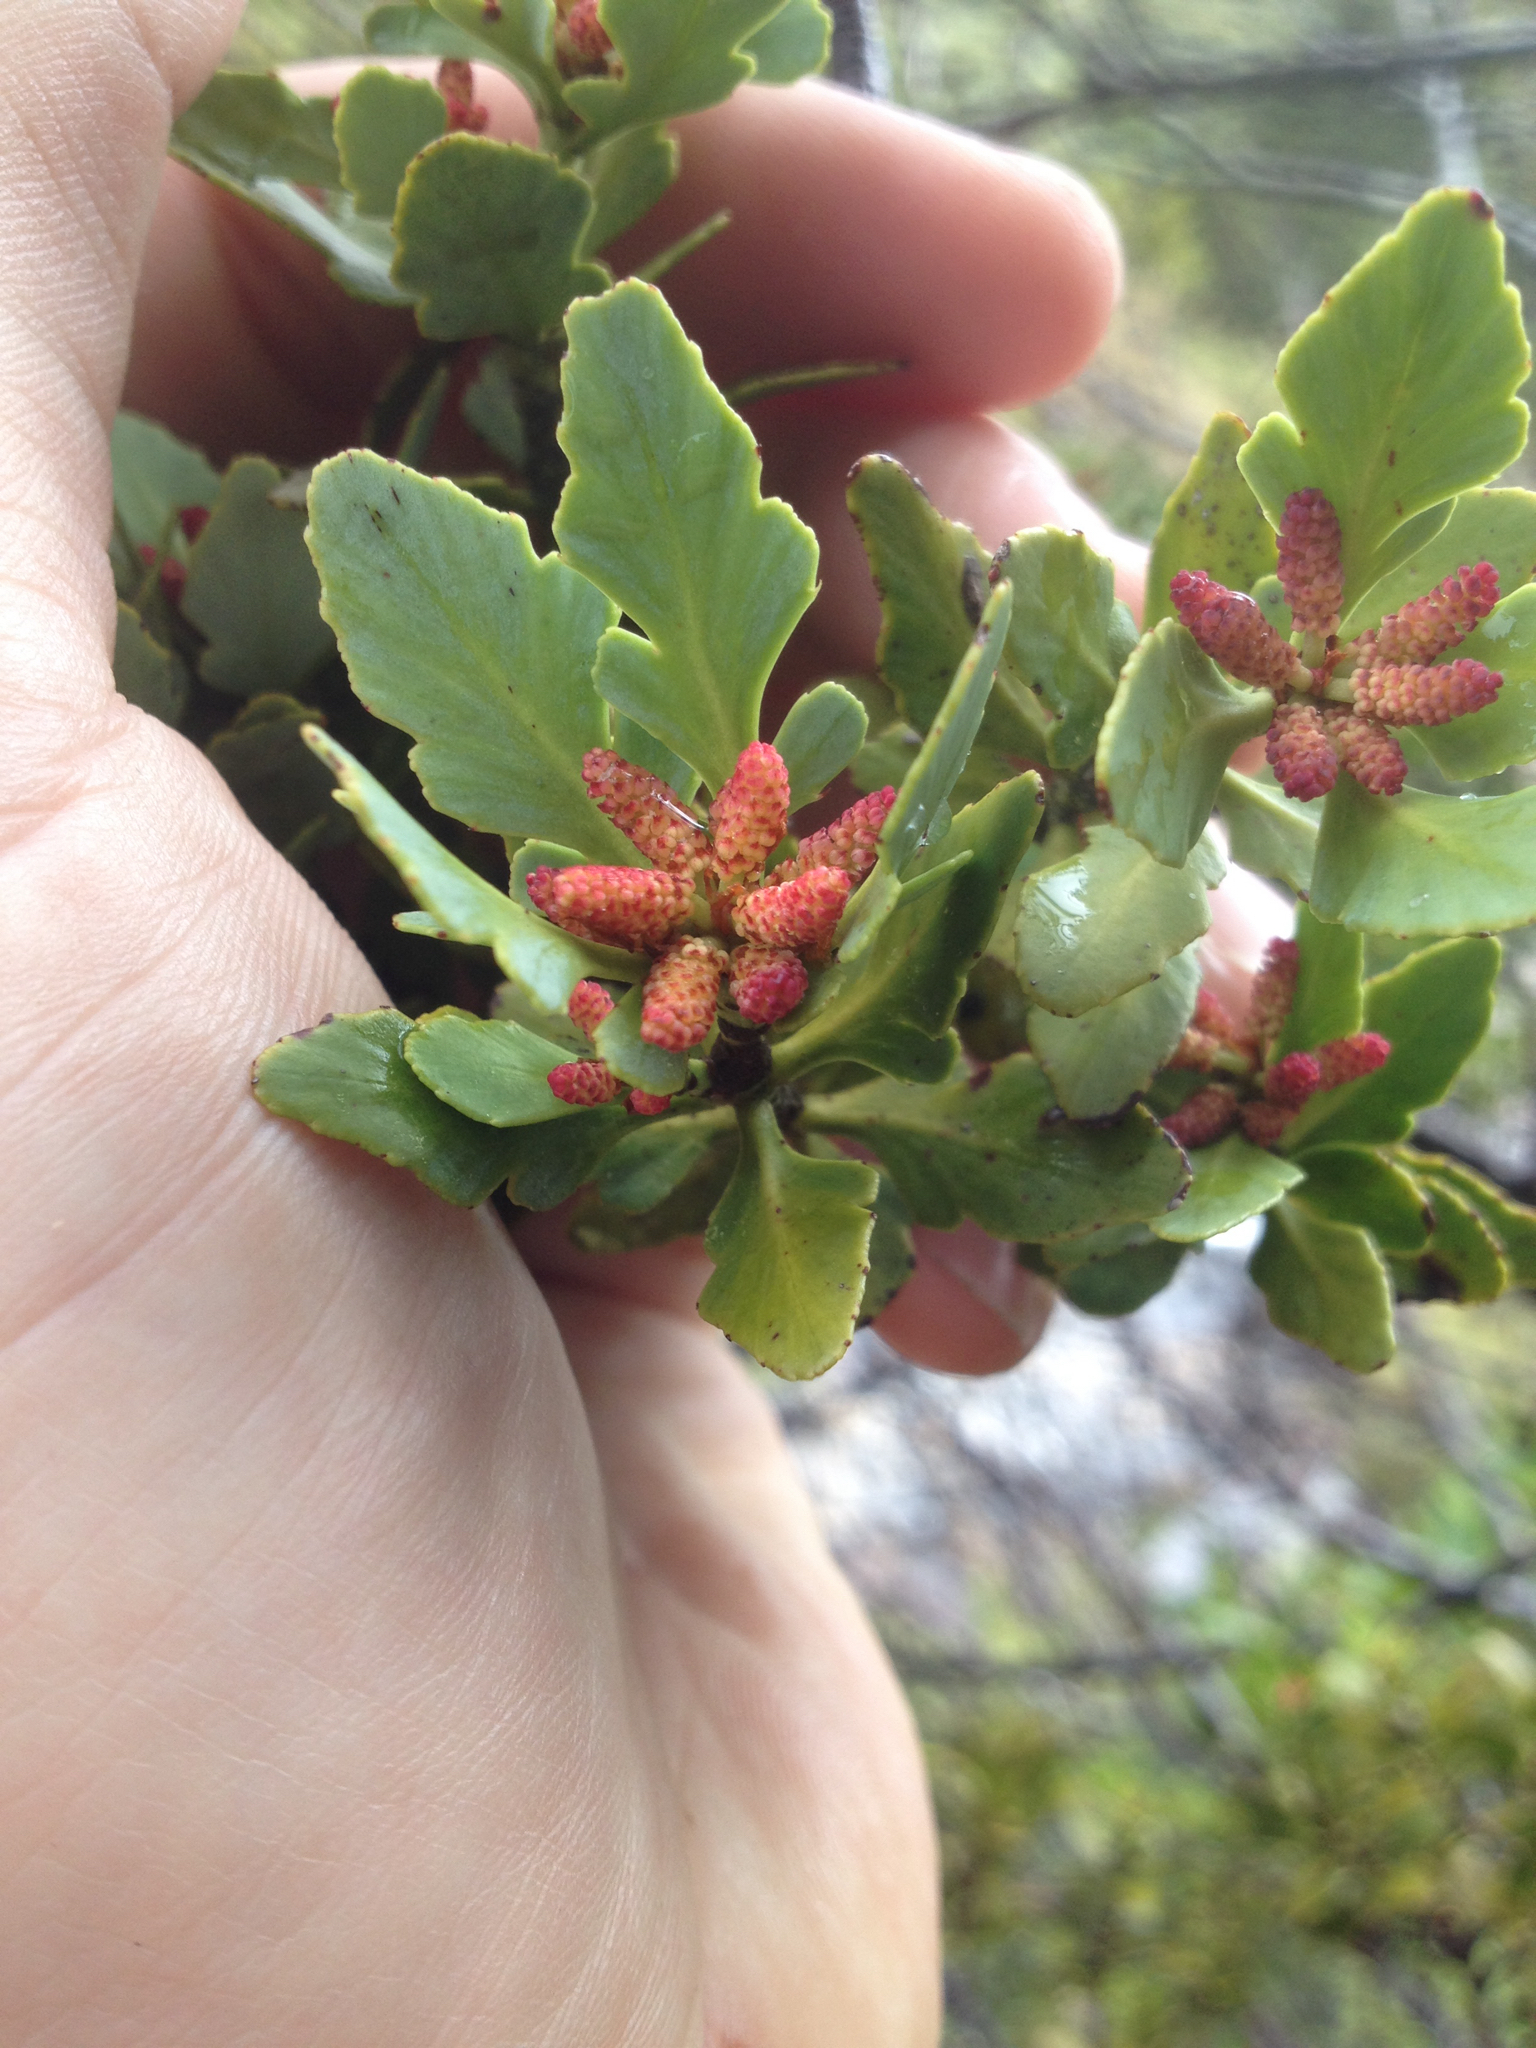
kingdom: Plantae
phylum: Tracheophyta
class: Pinopsida
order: Pinales
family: Phyllocladaceae
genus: Phyllocladus
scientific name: Phyllocladus trichomanoides
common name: Celery pine
